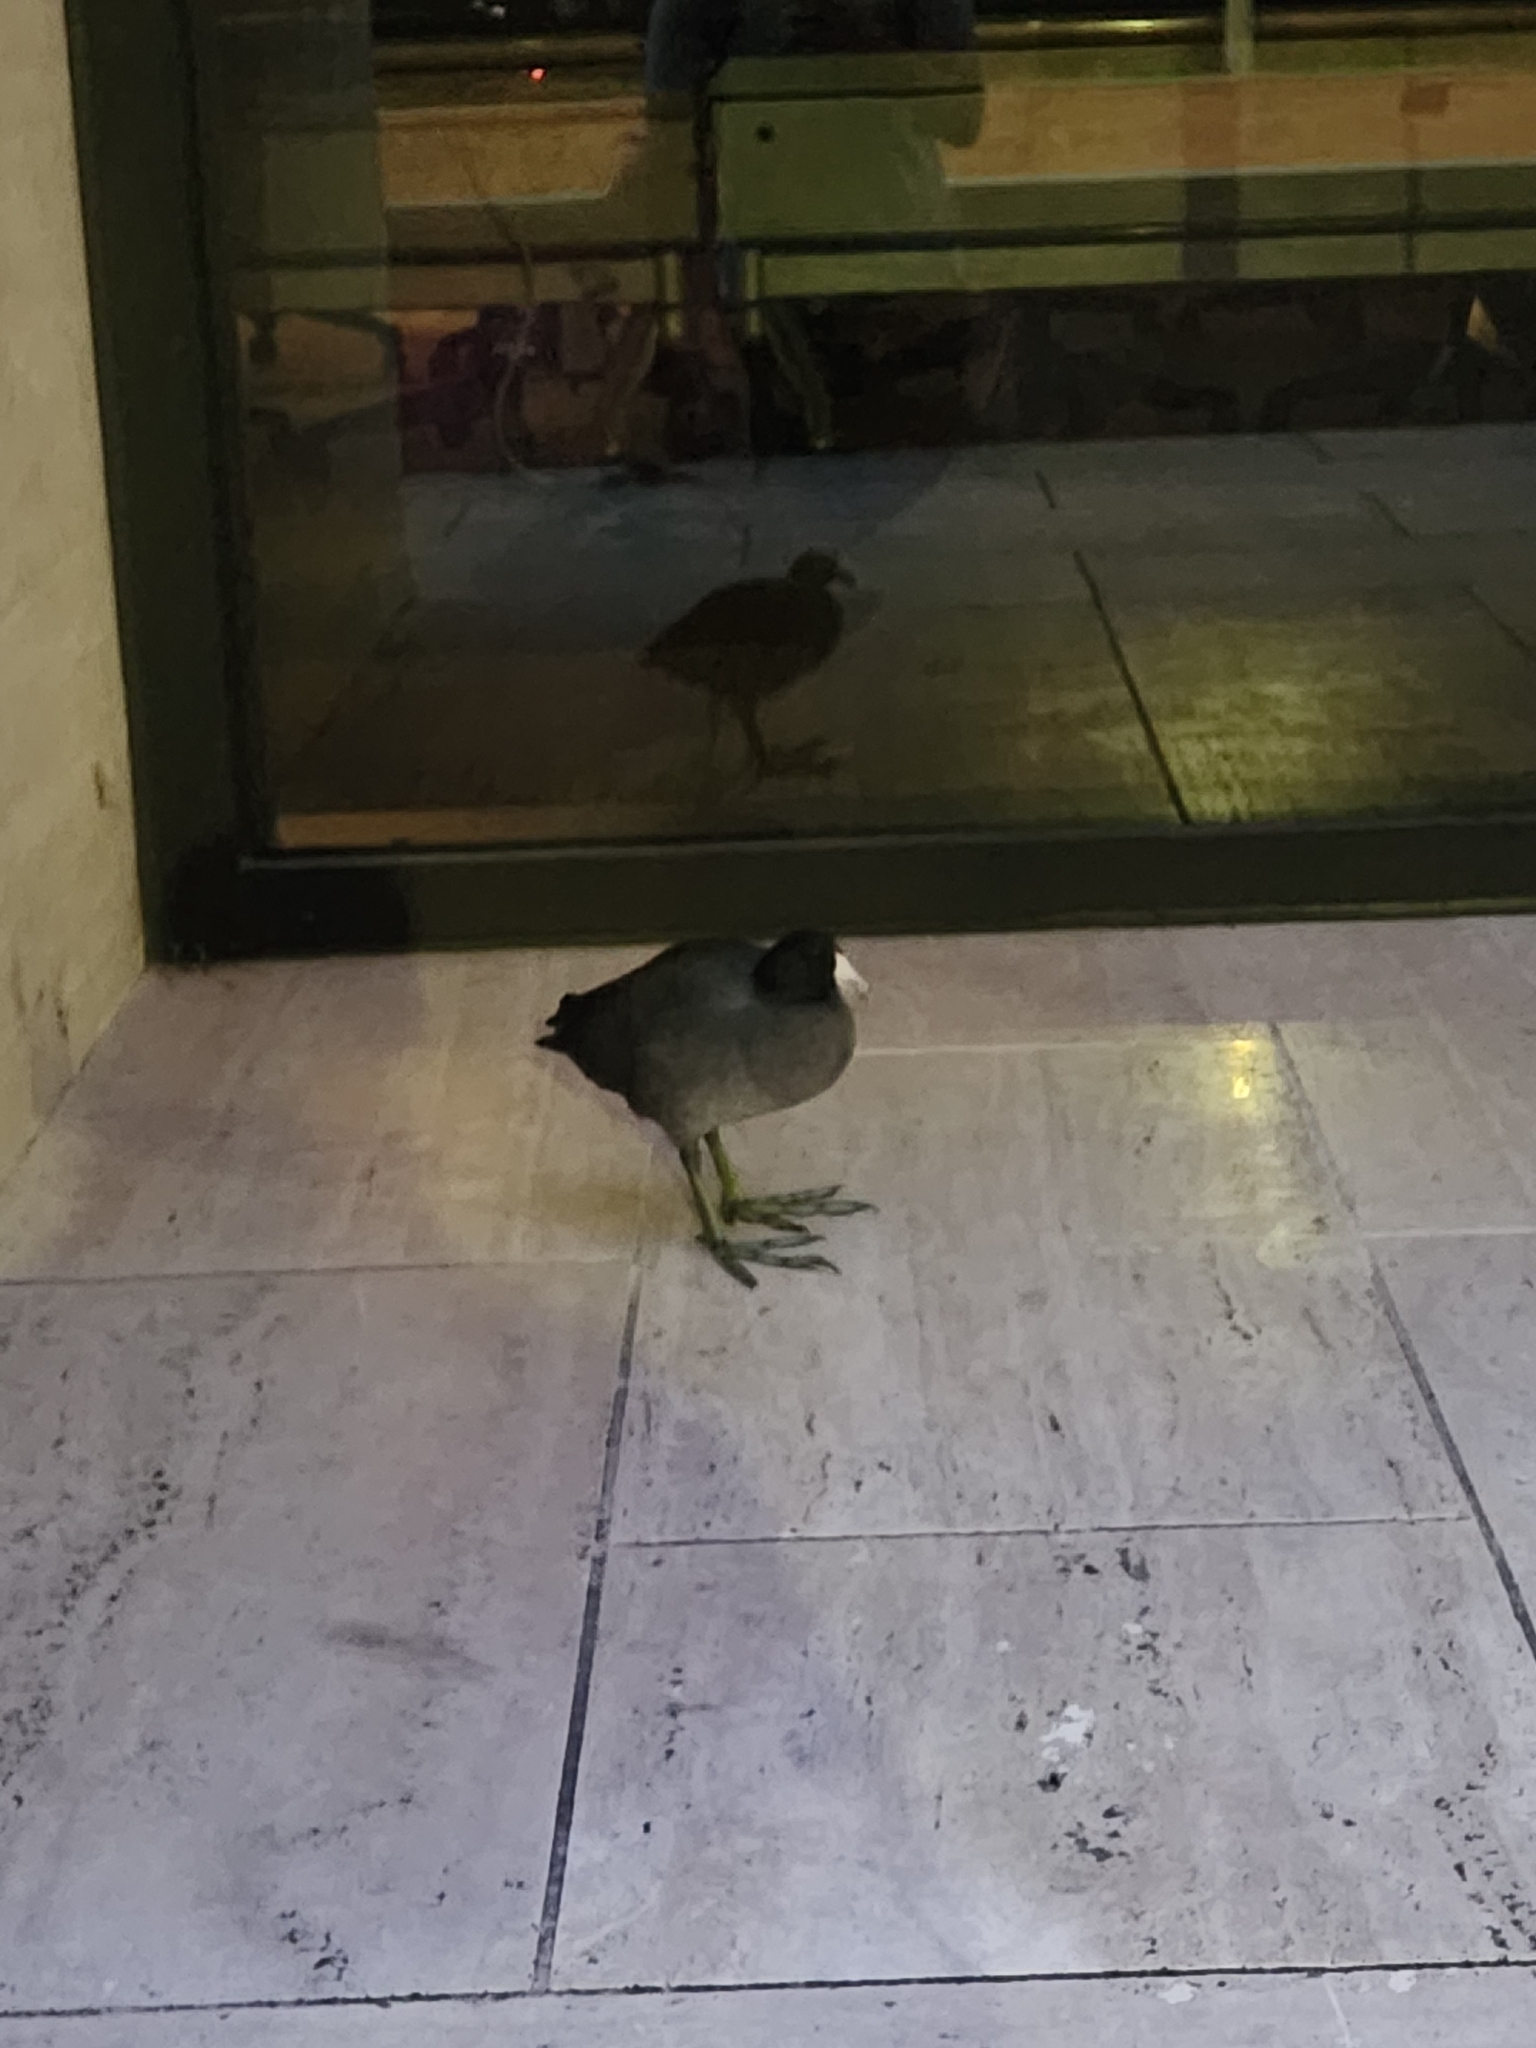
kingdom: Animalia
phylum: Chordata
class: Aves
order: Gruiformes
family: Rallidae
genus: Fulica
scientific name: Fulica americana
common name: American coot
